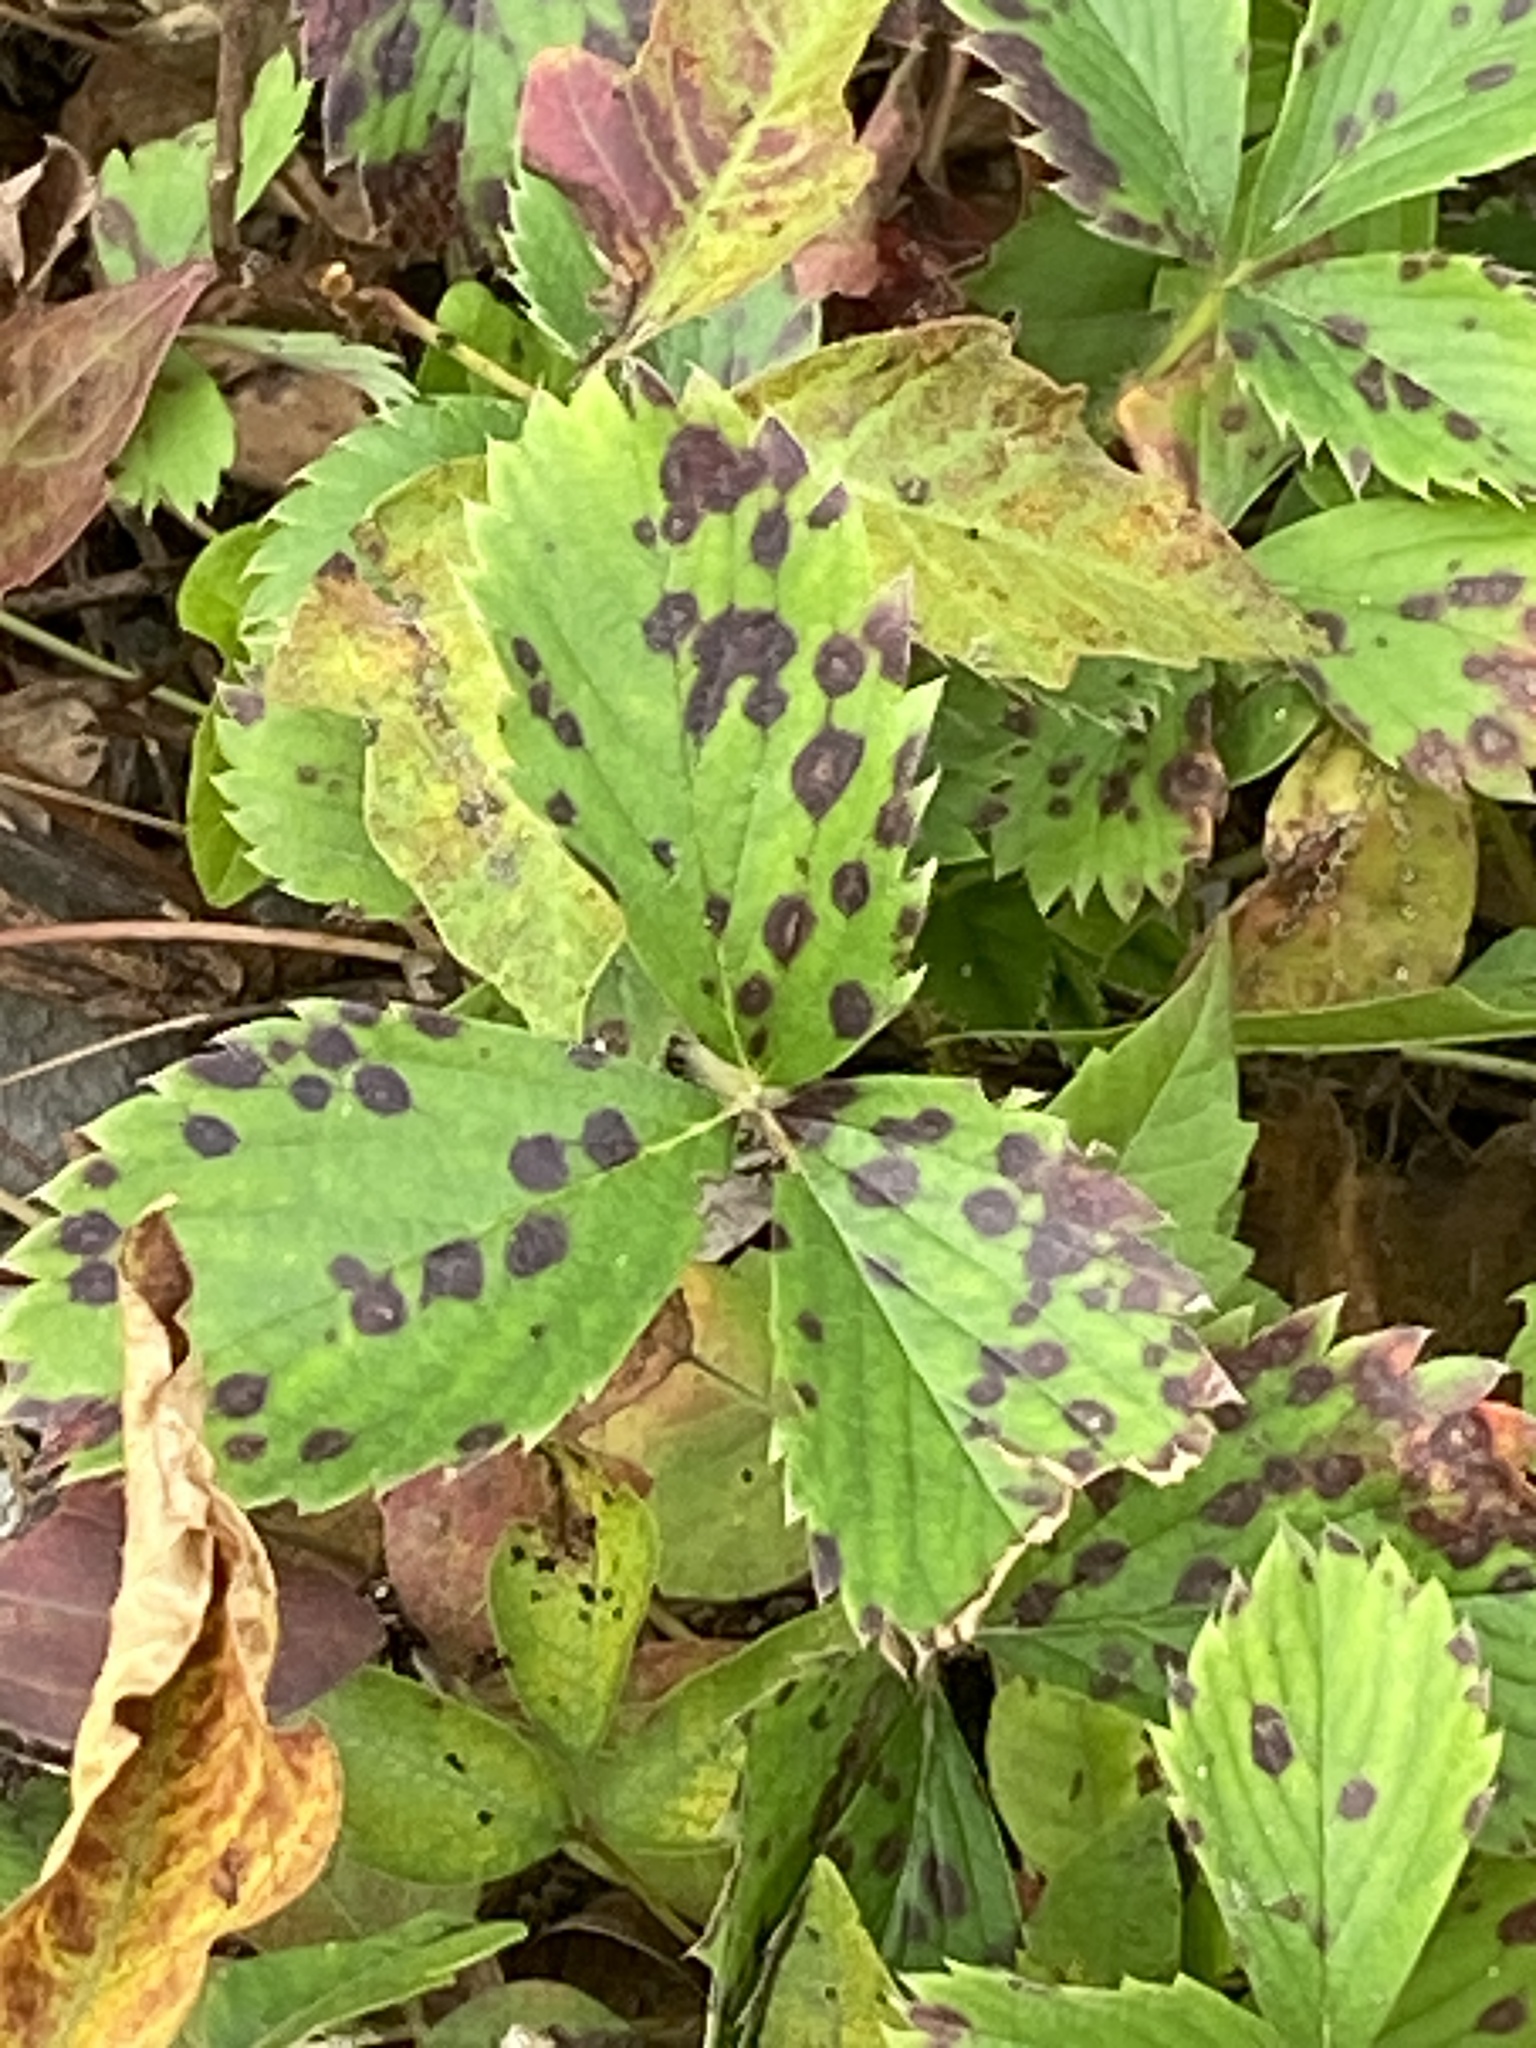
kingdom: Fungi
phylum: Ascomycota
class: Dothideomycetes
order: Mycosphaerellales
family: Mycosphaerellaceae
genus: Ramularia
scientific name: Ramularia grevilleana
